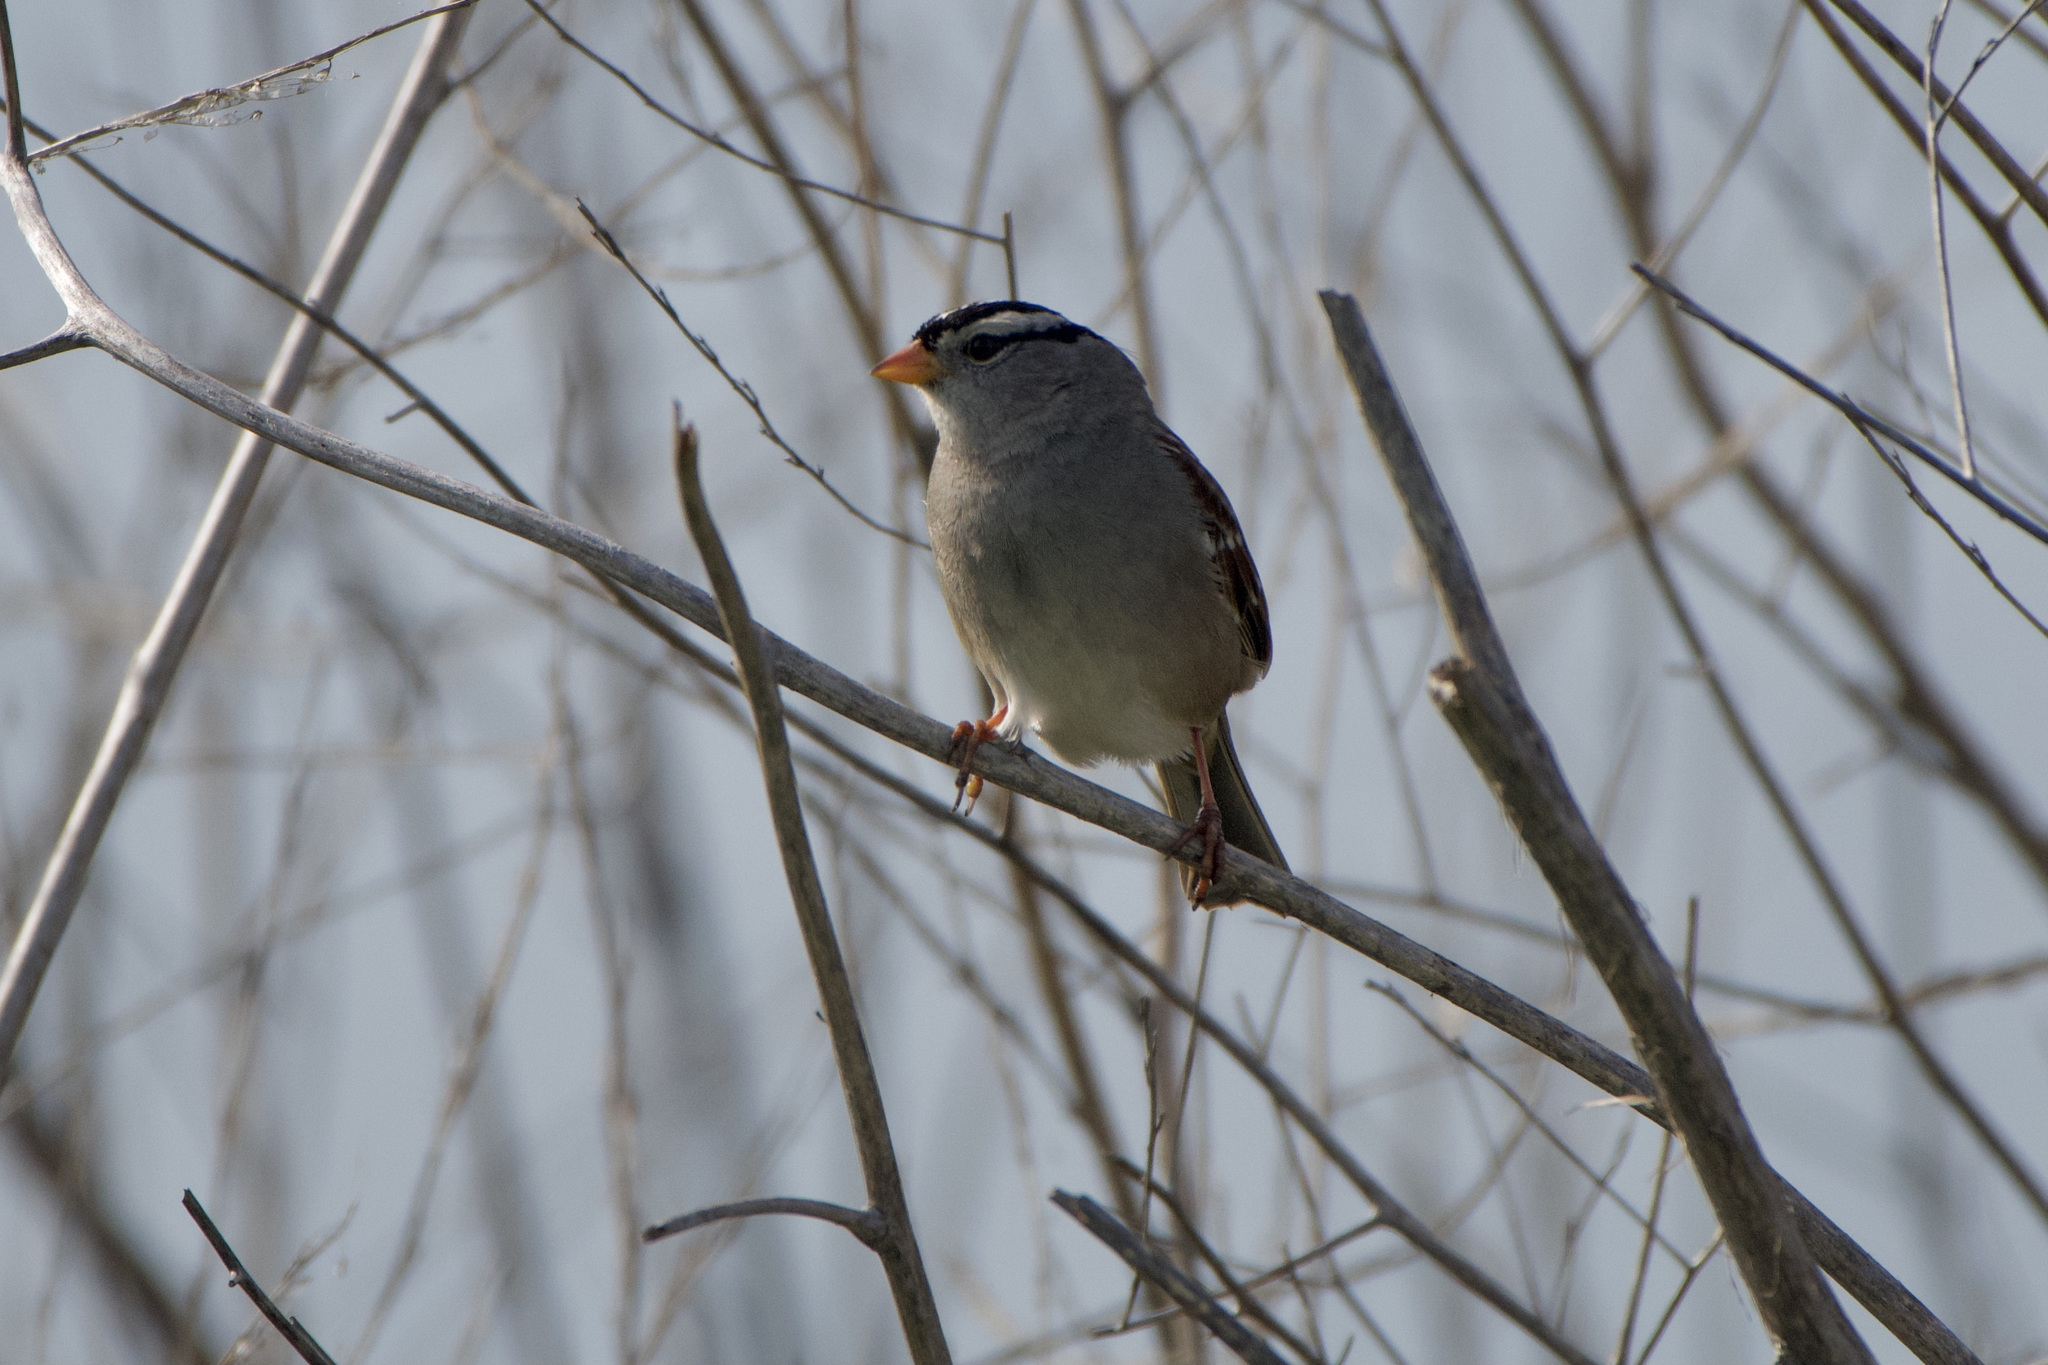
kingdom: Animalia
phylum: Chordata
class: Aves
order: Passeriformes
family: Passerellidae
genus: Zonotrichia
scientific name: Zonotrichia leucophrys
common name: White-crowned sparrow
